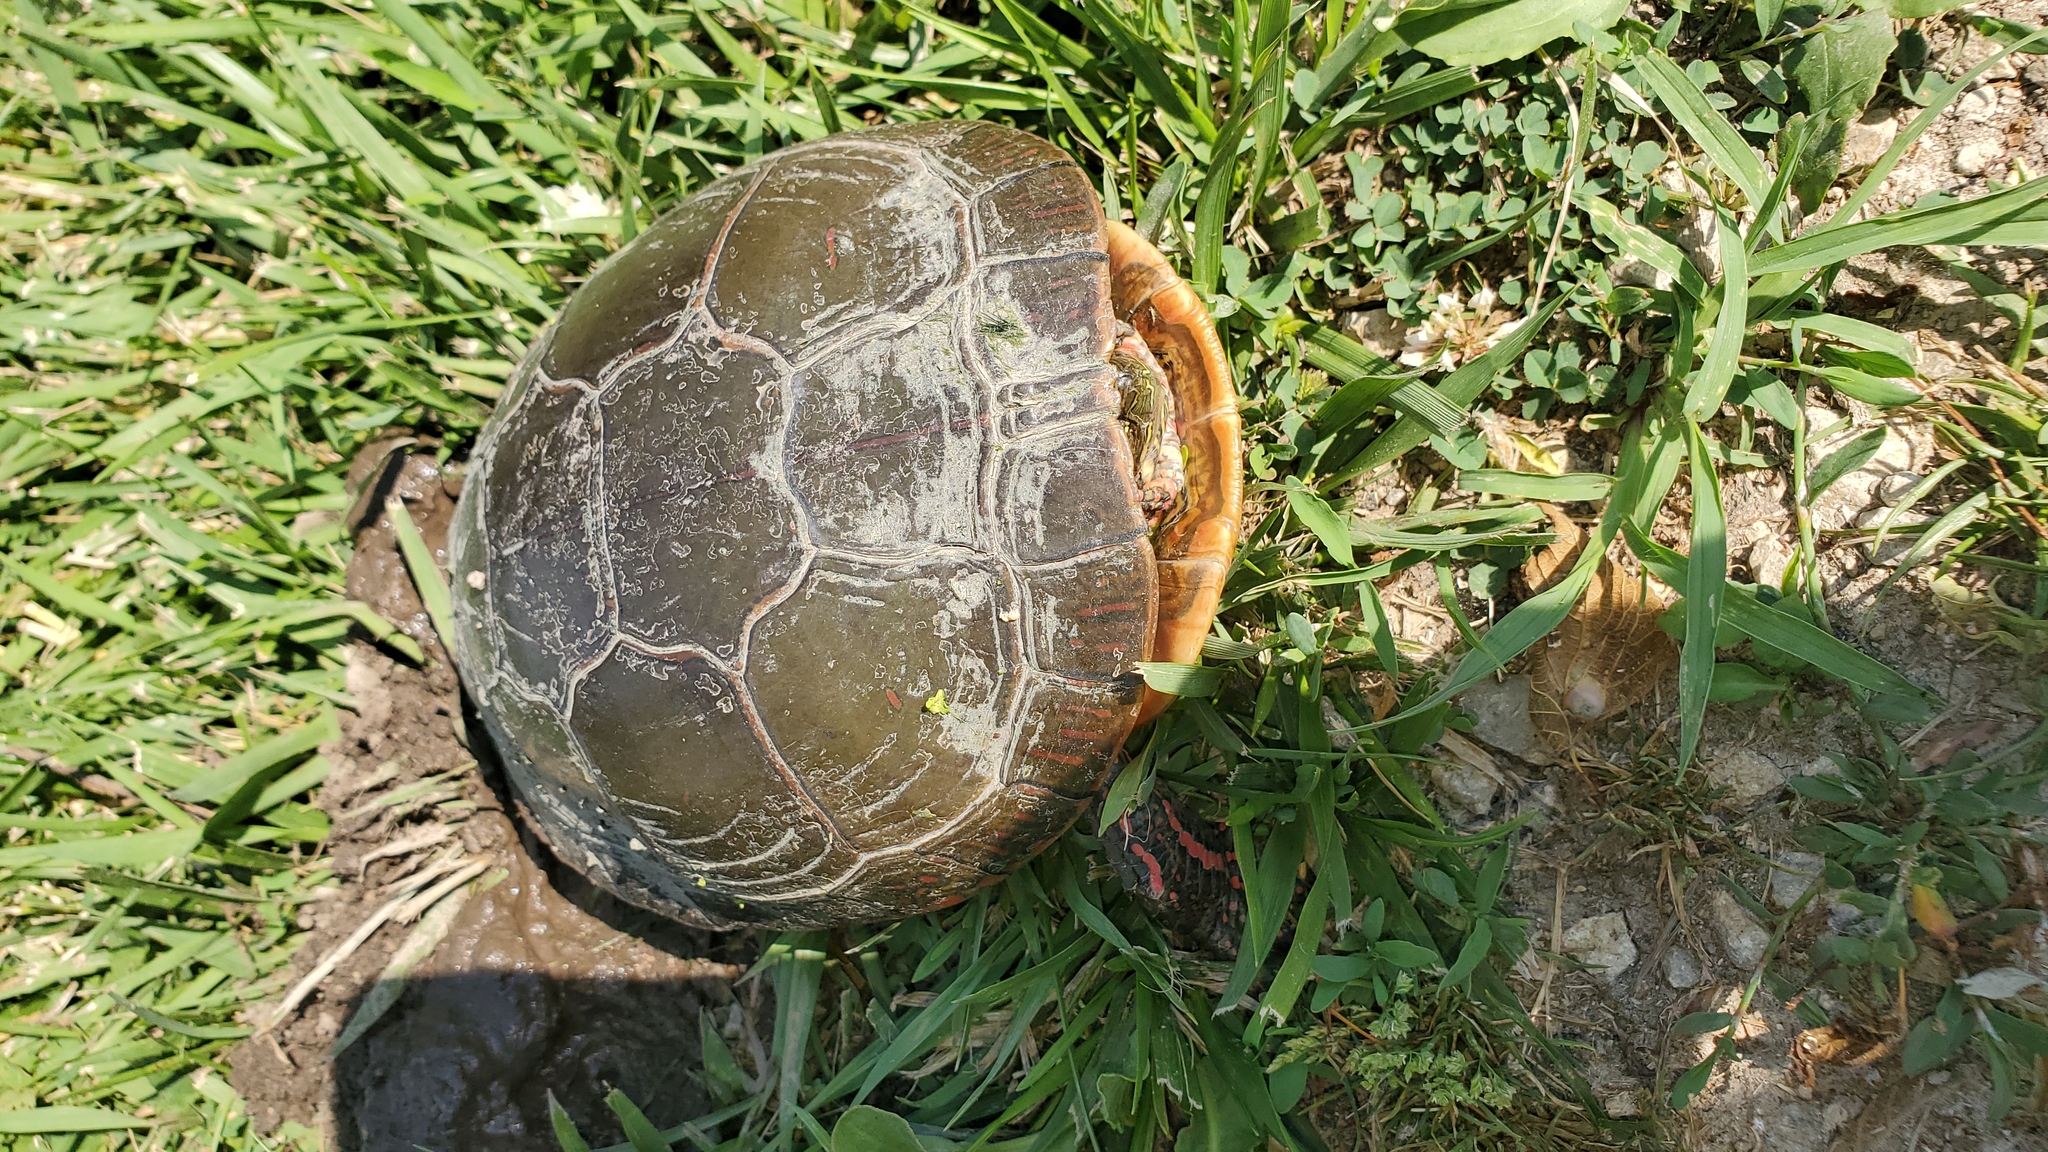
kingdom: Animalia
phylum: Chordata
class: Testudines
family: Emydidae
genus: Chrysemys
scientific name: Chrysemys picta
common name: Painted turtle
